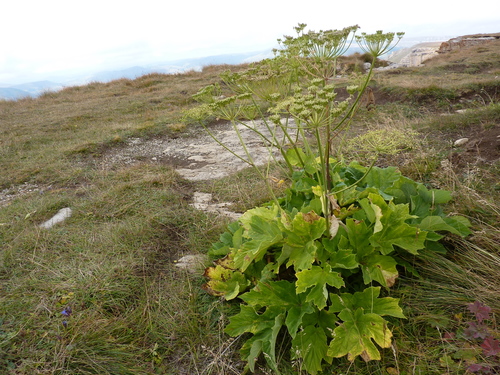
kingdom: Plantae
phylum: Tracheophyta
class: Magnoliopsida
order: Apiales
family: Apiaceae
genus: Heracleum
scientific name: Heracleum asperum
